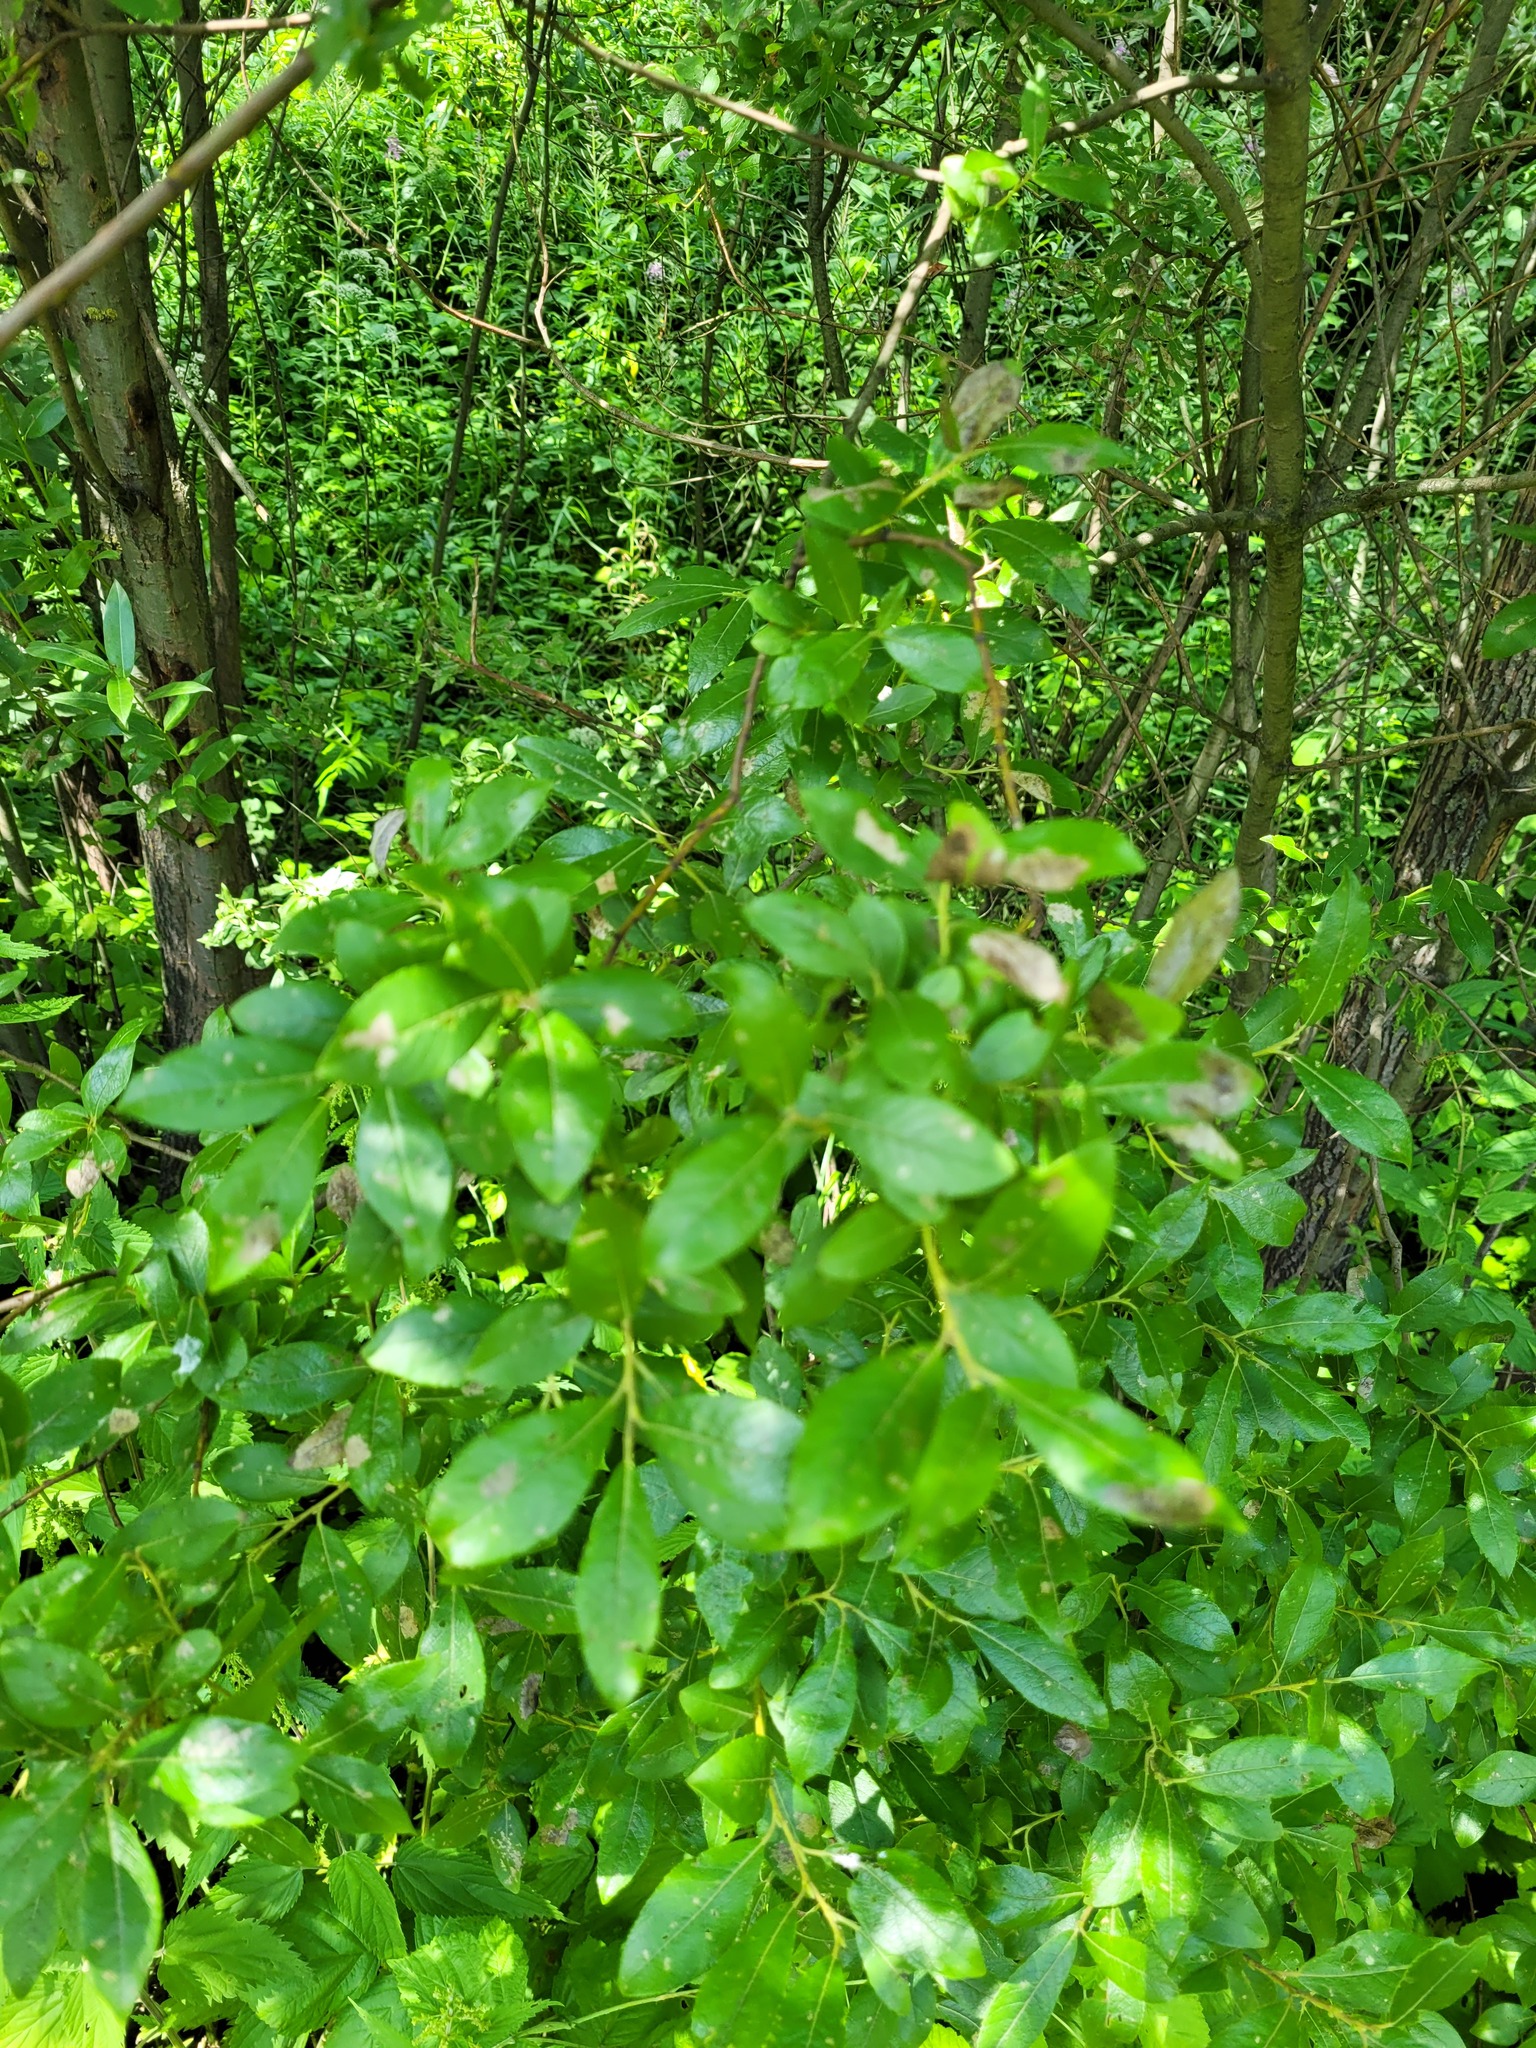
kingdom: Plantae
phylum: Tracheophyta
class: Magnoliopsida
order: Malpighiales
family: Salicaceae
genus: Salix
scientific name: Salix myrsinifolia
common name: Dark-leaved willow
